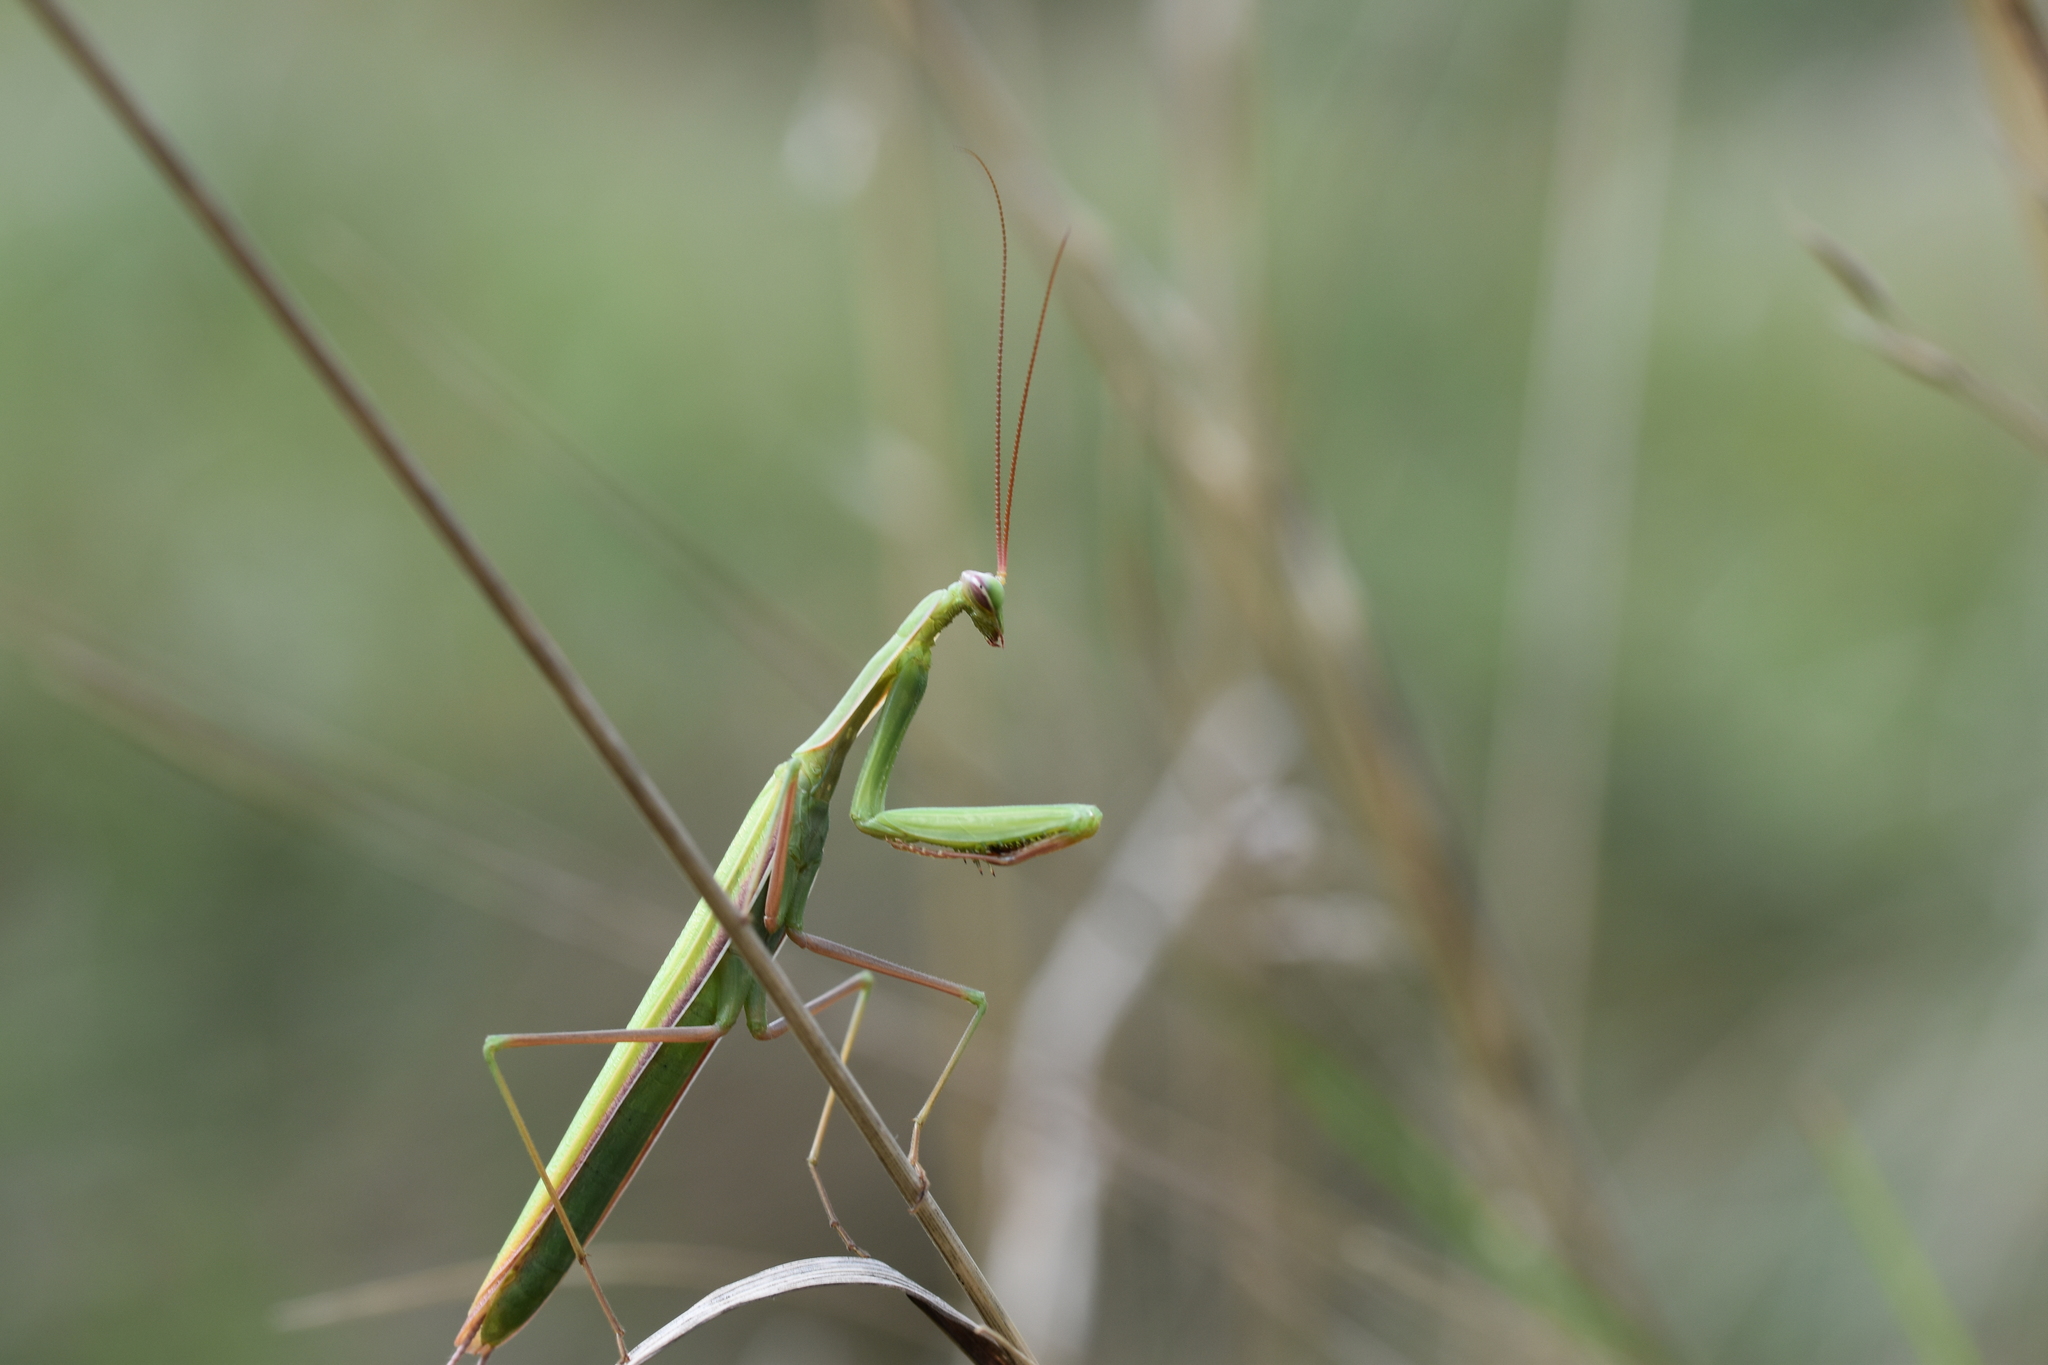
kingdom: Animalia
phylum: Arthropoda
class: Insecta
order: Mantodea
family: Mantidae
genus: Mantis
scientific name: Mantis religiosa
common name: Praying mantis
